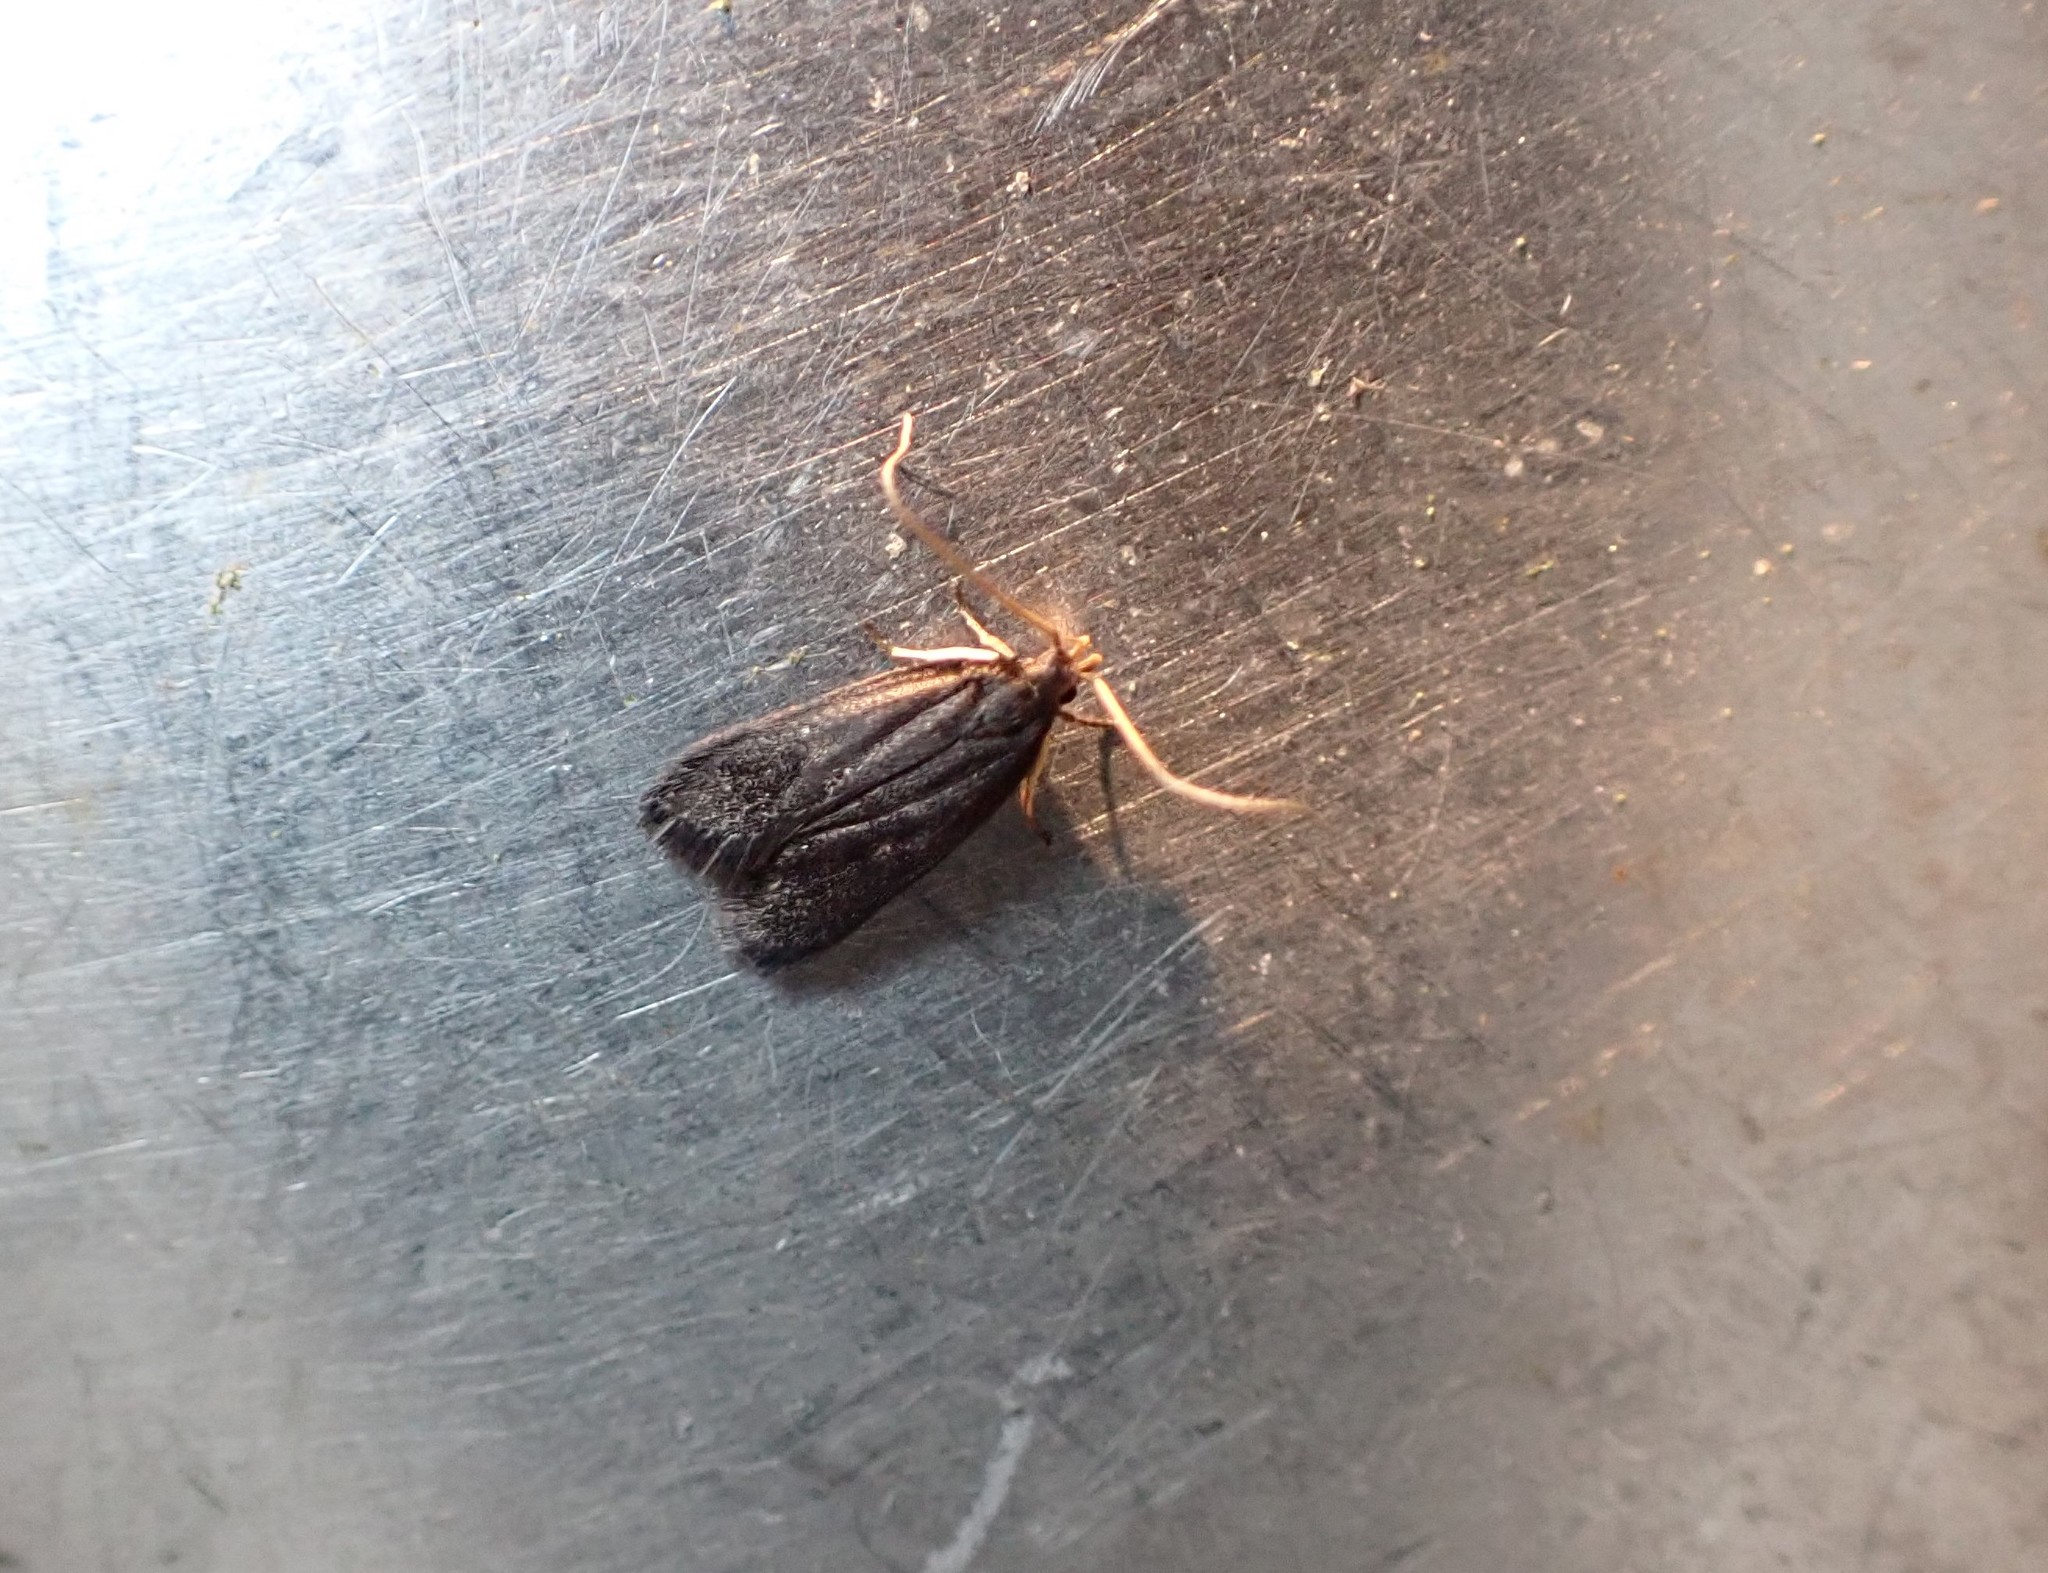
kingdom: Animalia
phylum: Arthropoda
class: Insecta
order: Lepidoptera
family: Lecithoceridae
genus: Lecithocera
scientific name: Lecithocera micromela
